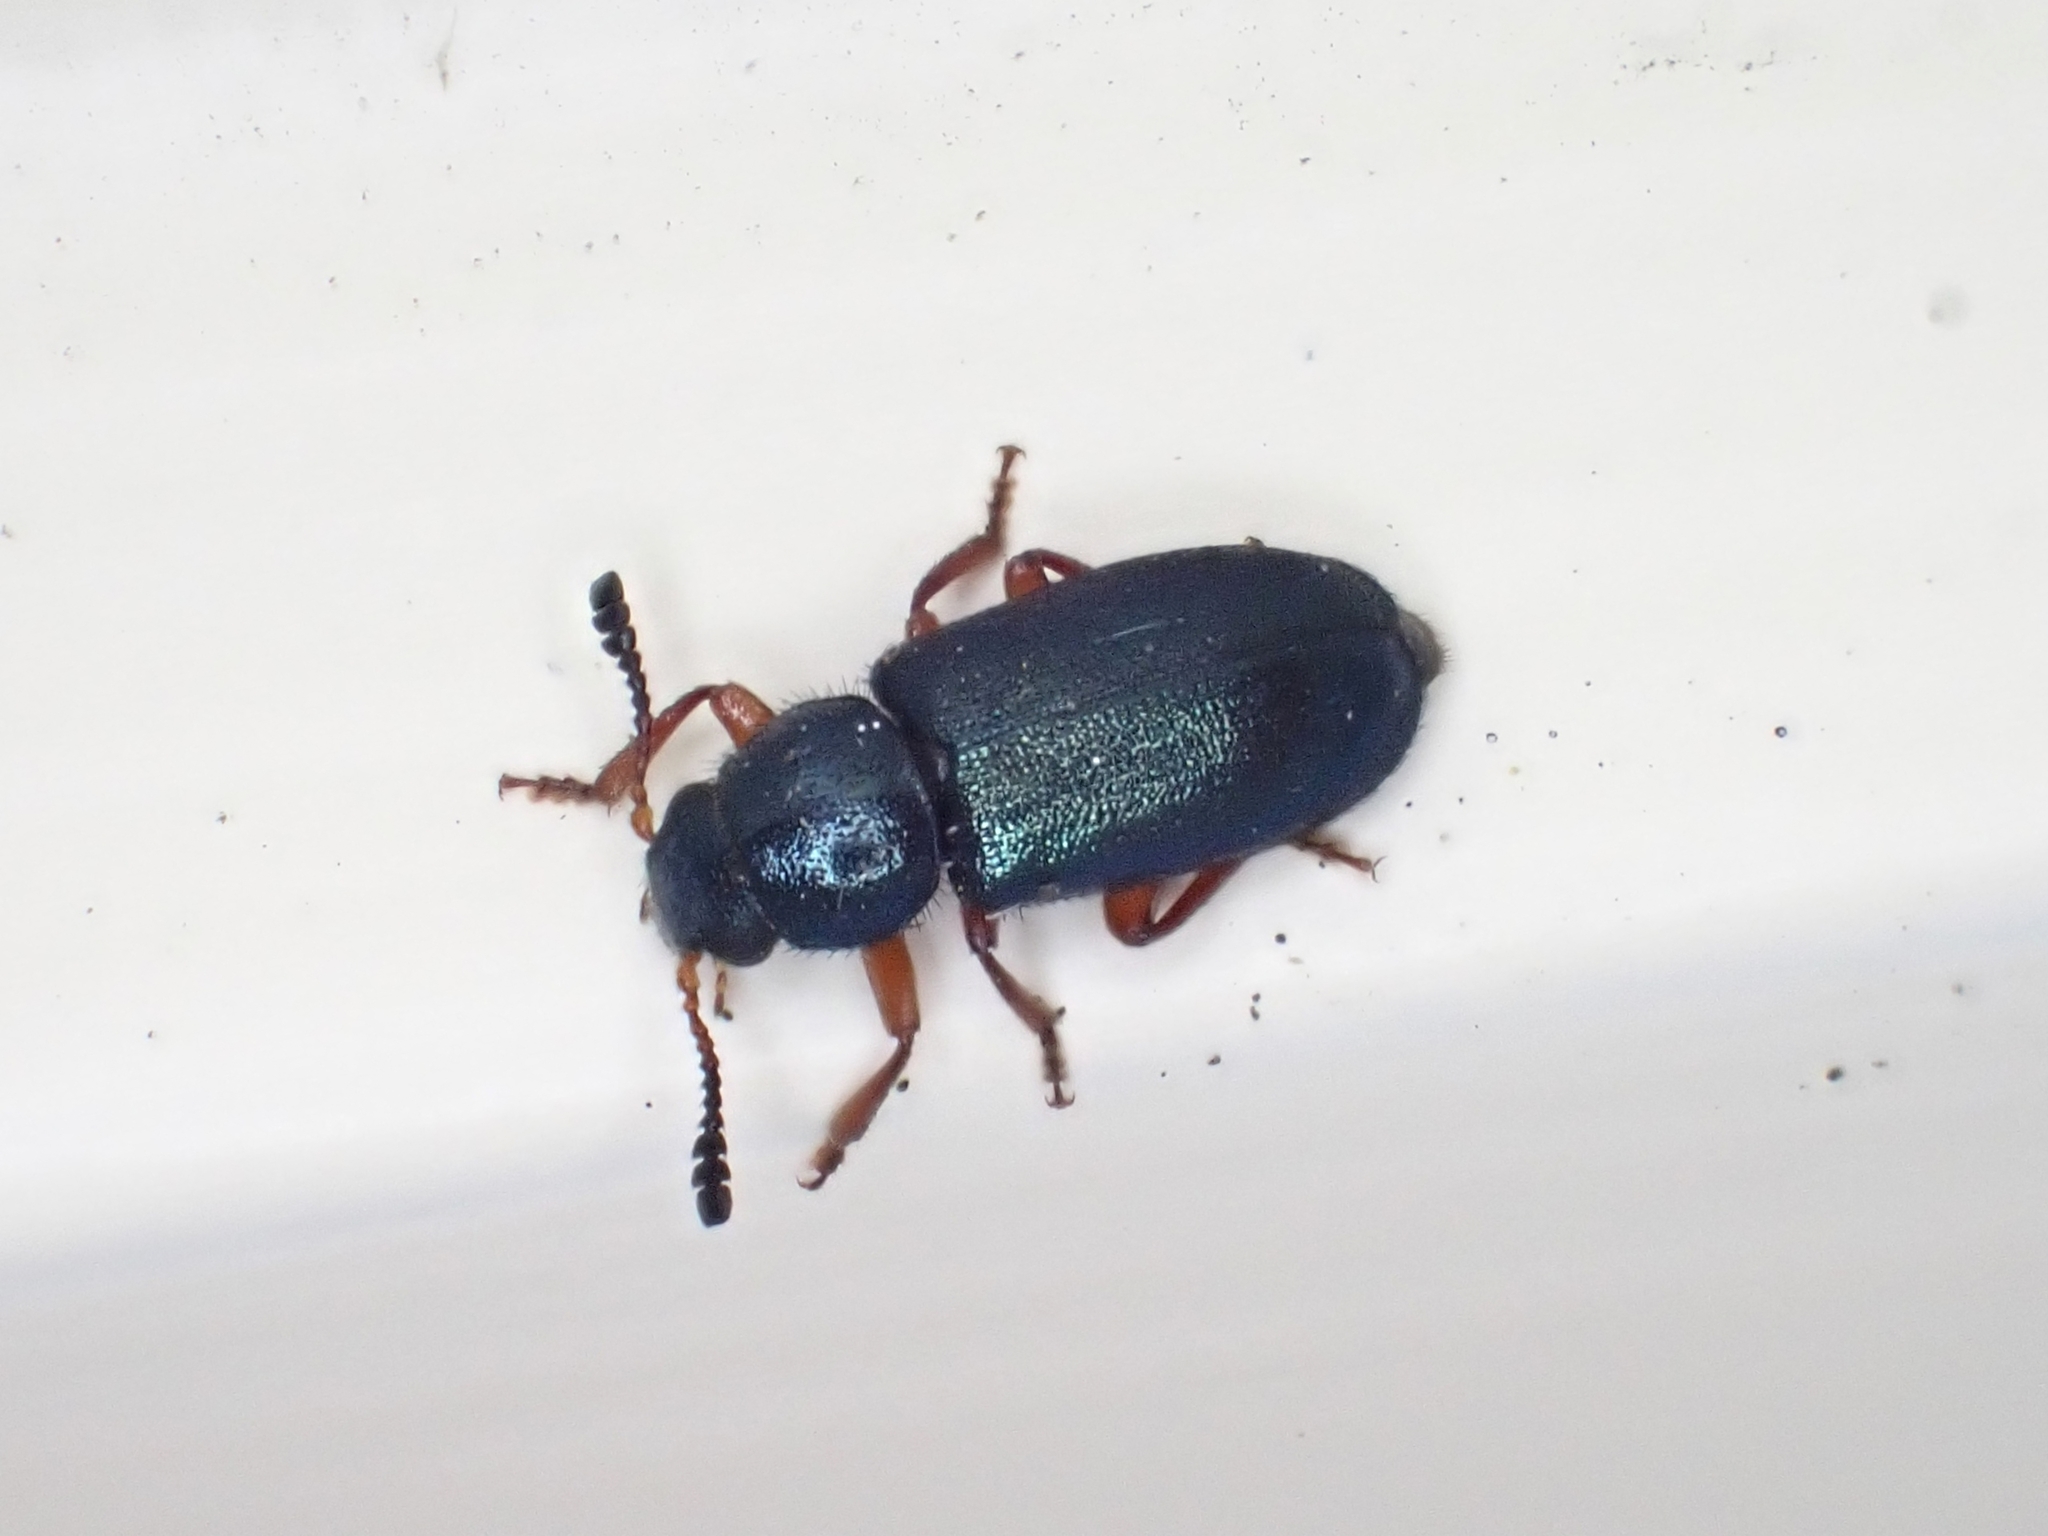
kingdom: Animalia
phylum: Arthropoda
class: Insecta
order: Coleoptera
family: Cleridae
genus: Necrobia
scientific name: Necrobia rufipes
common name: Red-legged ham beetle
